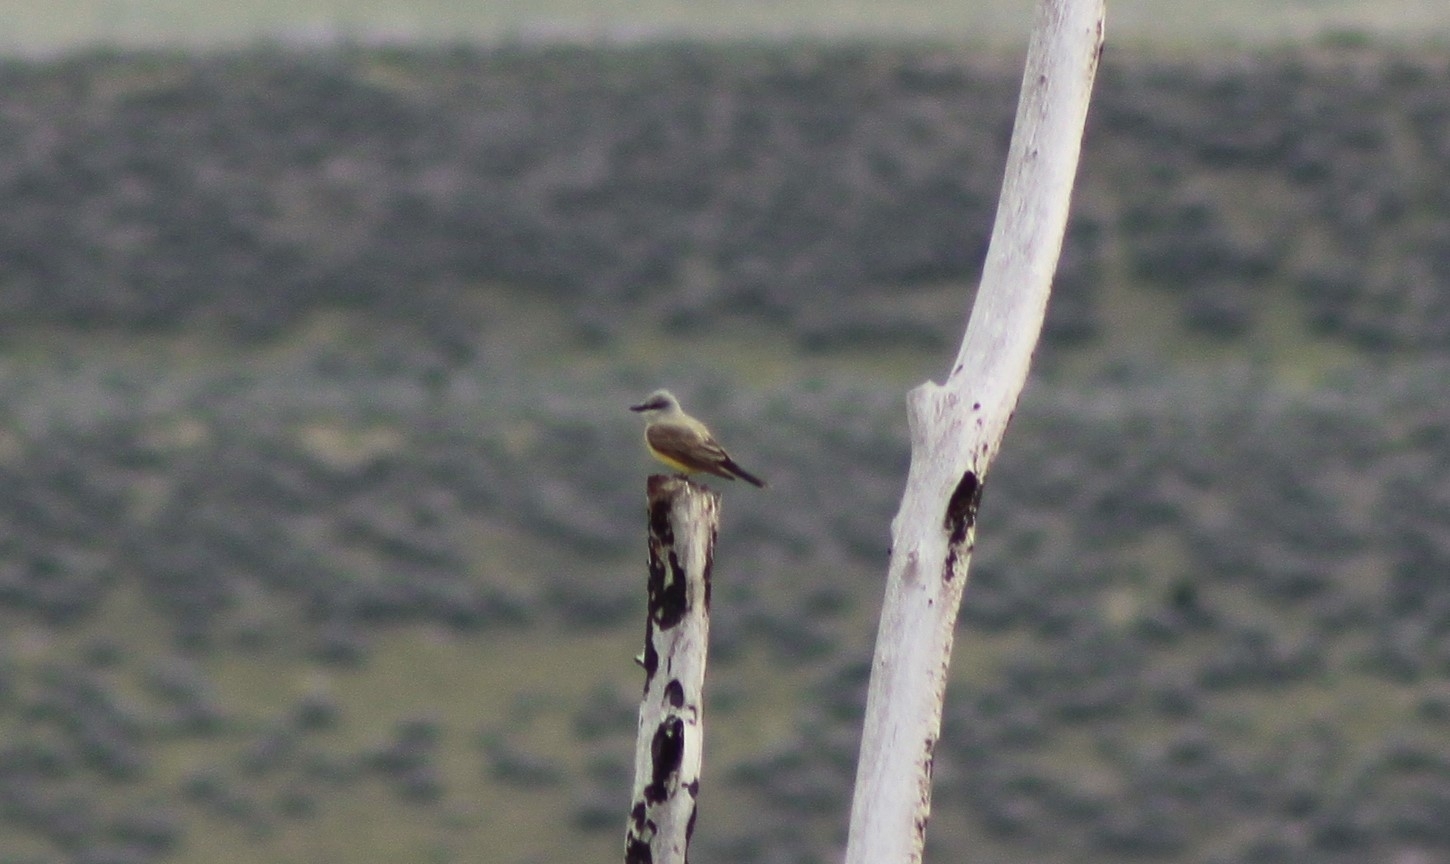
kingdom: Animalia
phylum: Chordata
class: Aves
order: Passeriformes
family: Tyrannidae
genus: Tyrannus
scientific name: Tyrannus verticalis
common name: Western kingbird
